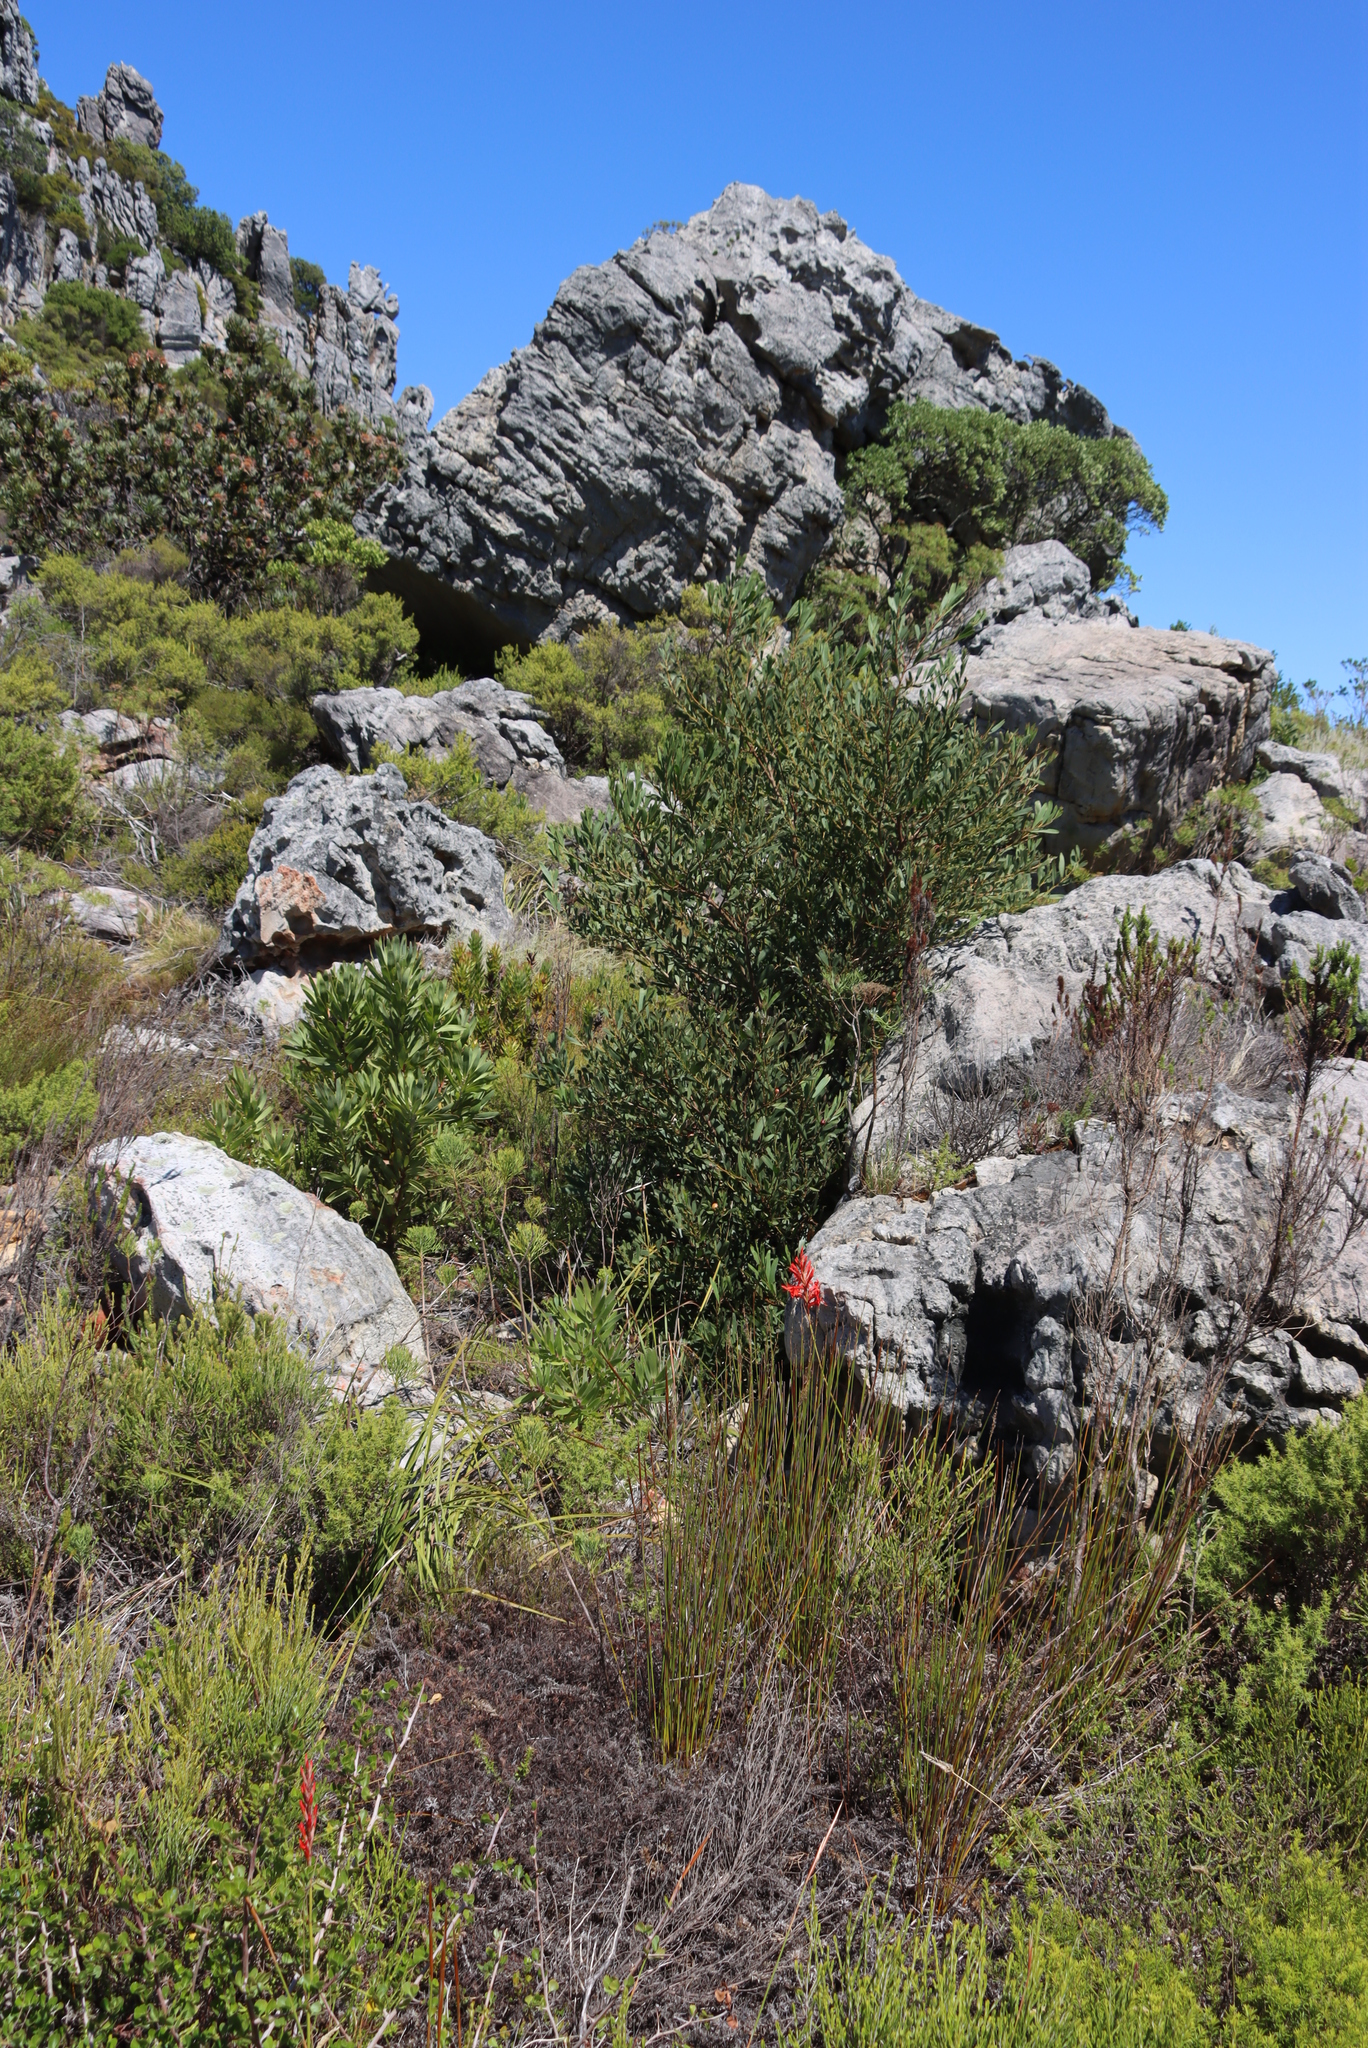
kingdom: Plantae
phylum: Tracheophyta
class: Magnoliopsida
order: Fabales
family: Fabaceae
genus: Acacia
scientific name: Acacia longifolia
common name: Sydney golden wattle
